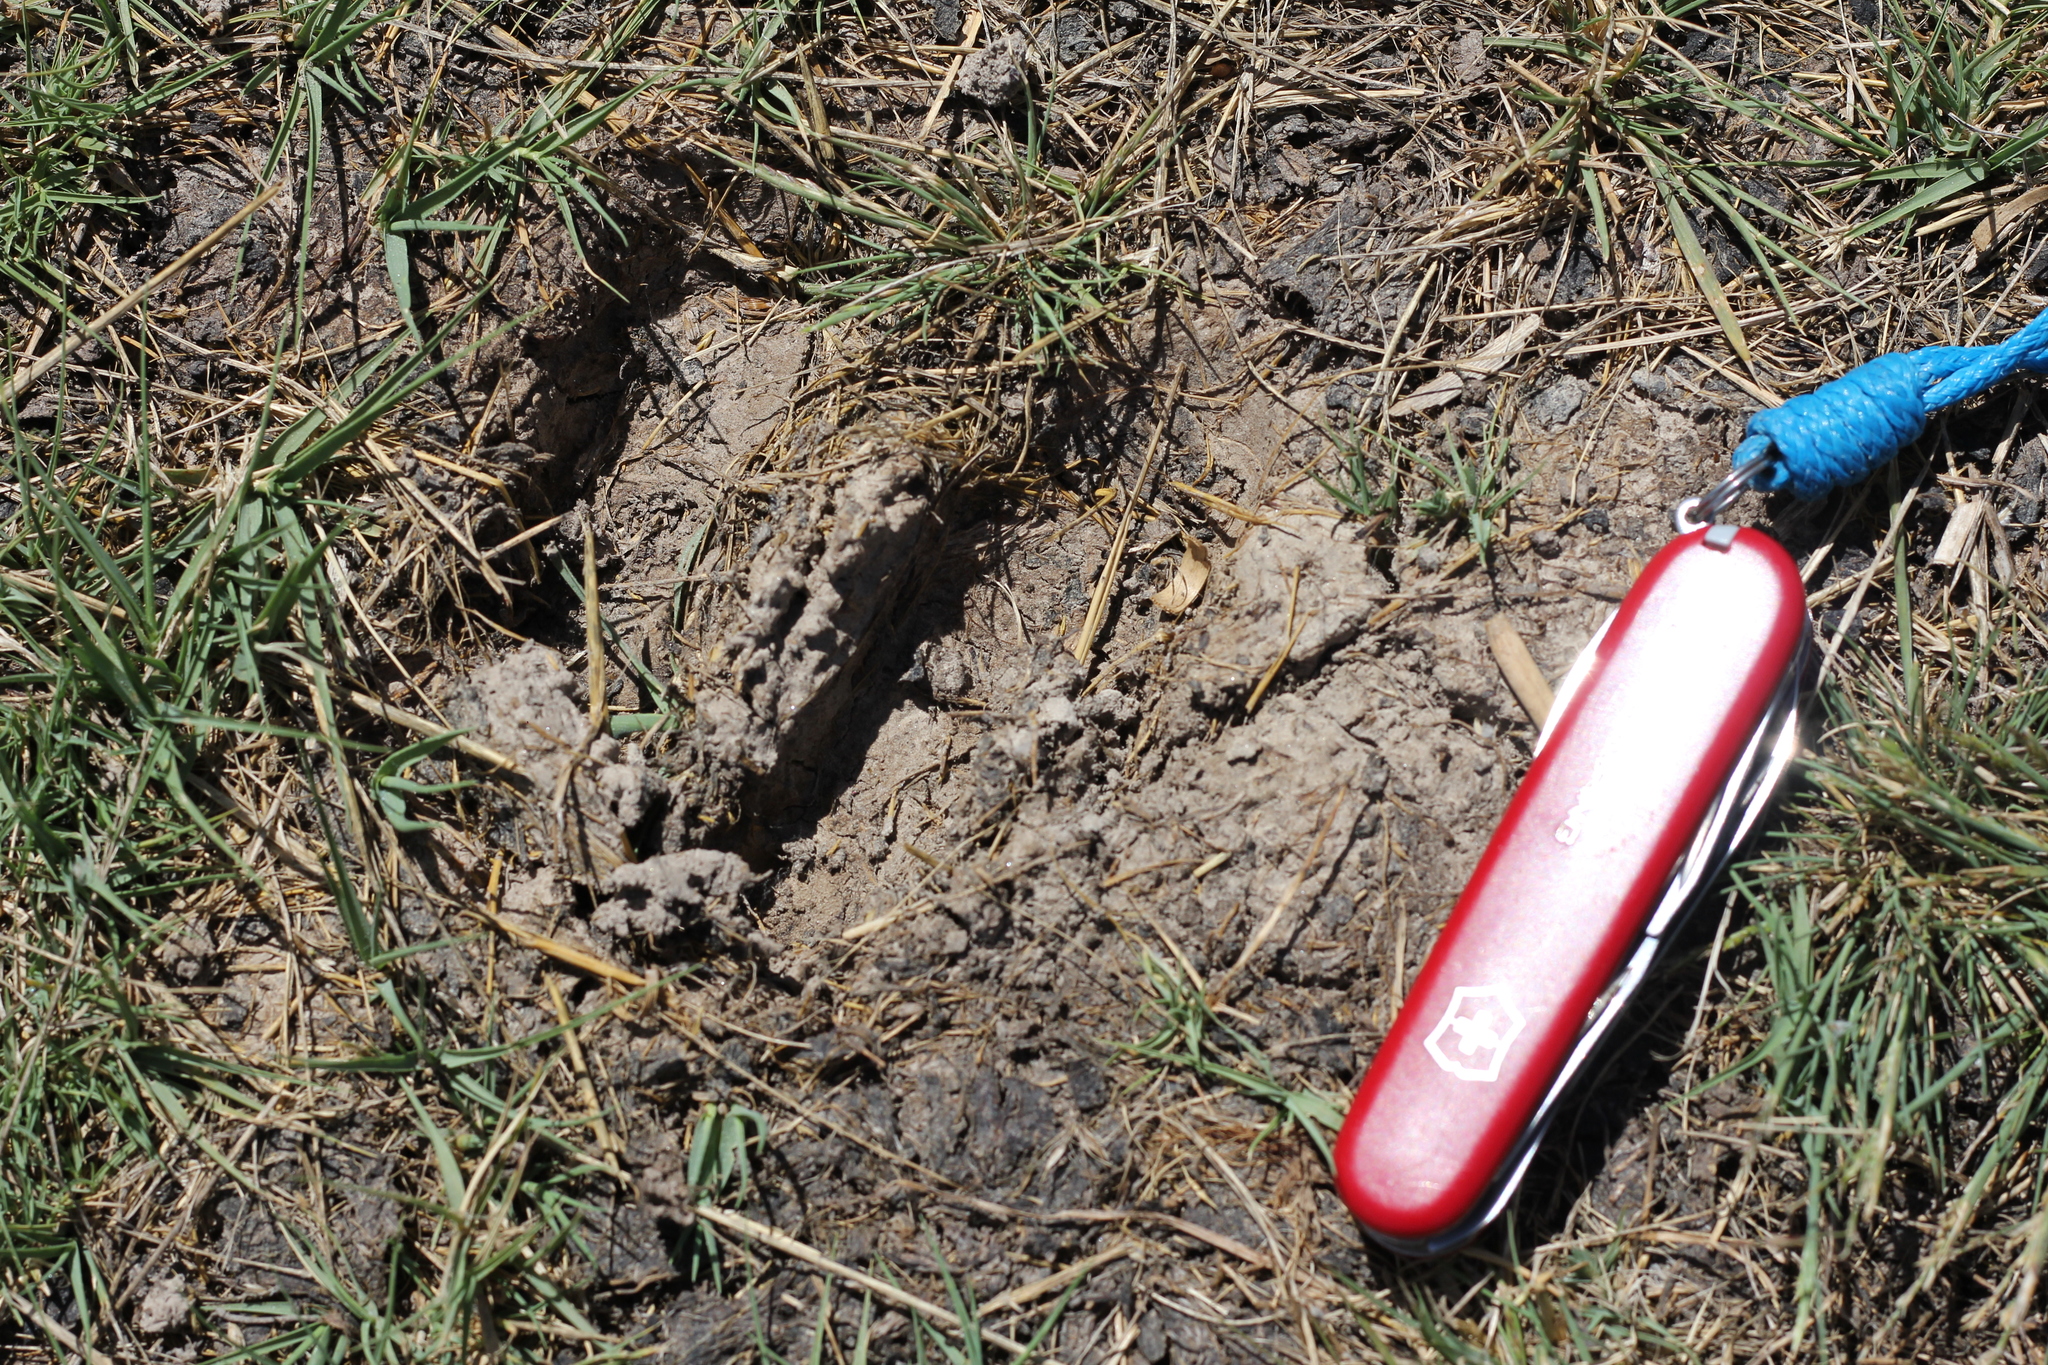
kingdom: Animalia
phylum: Chordata
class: Mammalia
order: Artiodactyla
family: Cervidae
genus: Blastocerus
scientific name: Blastocerus dichotomus
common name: Marsh deer
